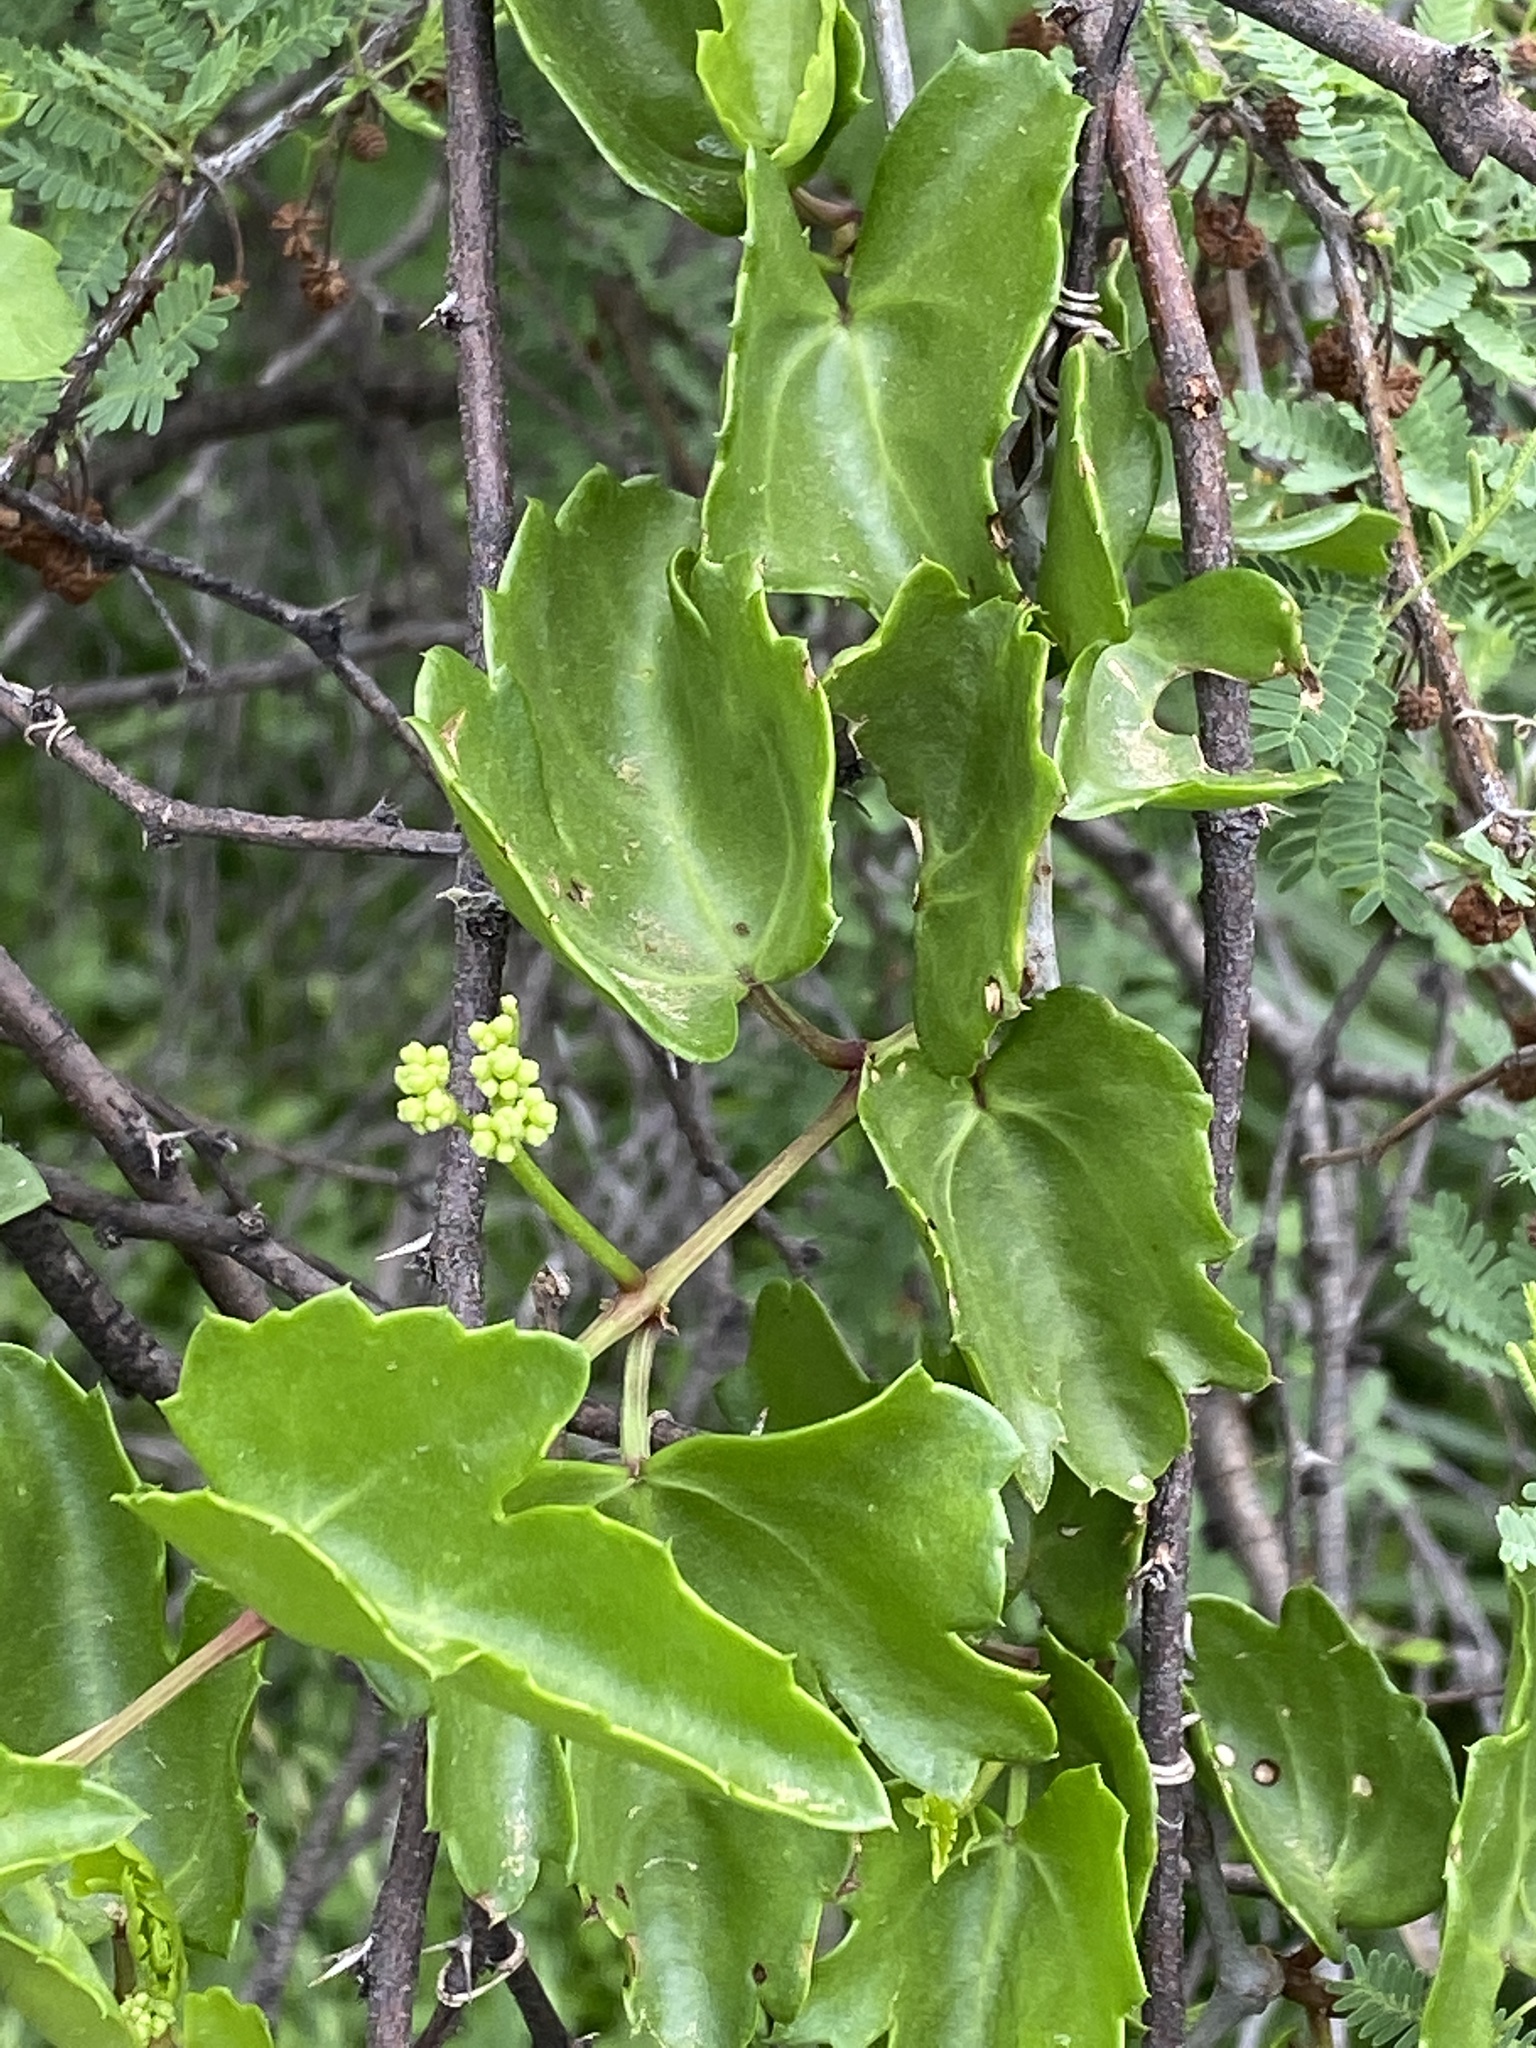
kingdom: Plantae
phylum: Tracheophyta
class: Magnoliopsida
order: Vitales
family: Vitaceae
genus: Cissus
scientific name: Cissus trifoliata
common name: Vine-sorrel
